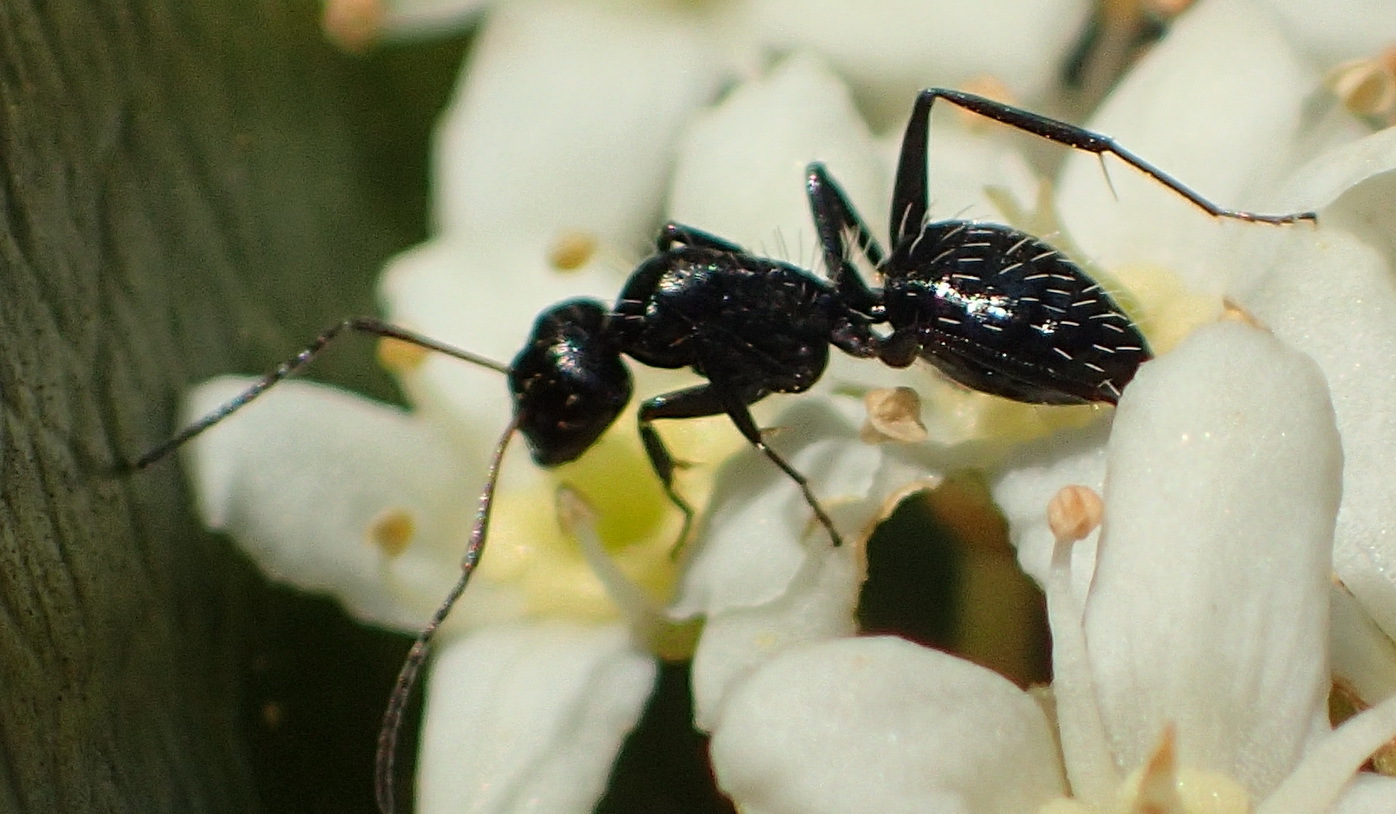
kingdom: Animalia
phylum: Arthropoda
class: Insecta
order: Hymenoptera
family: Formicidae
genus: Camponotus
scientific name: Camponotus niveosetosus
